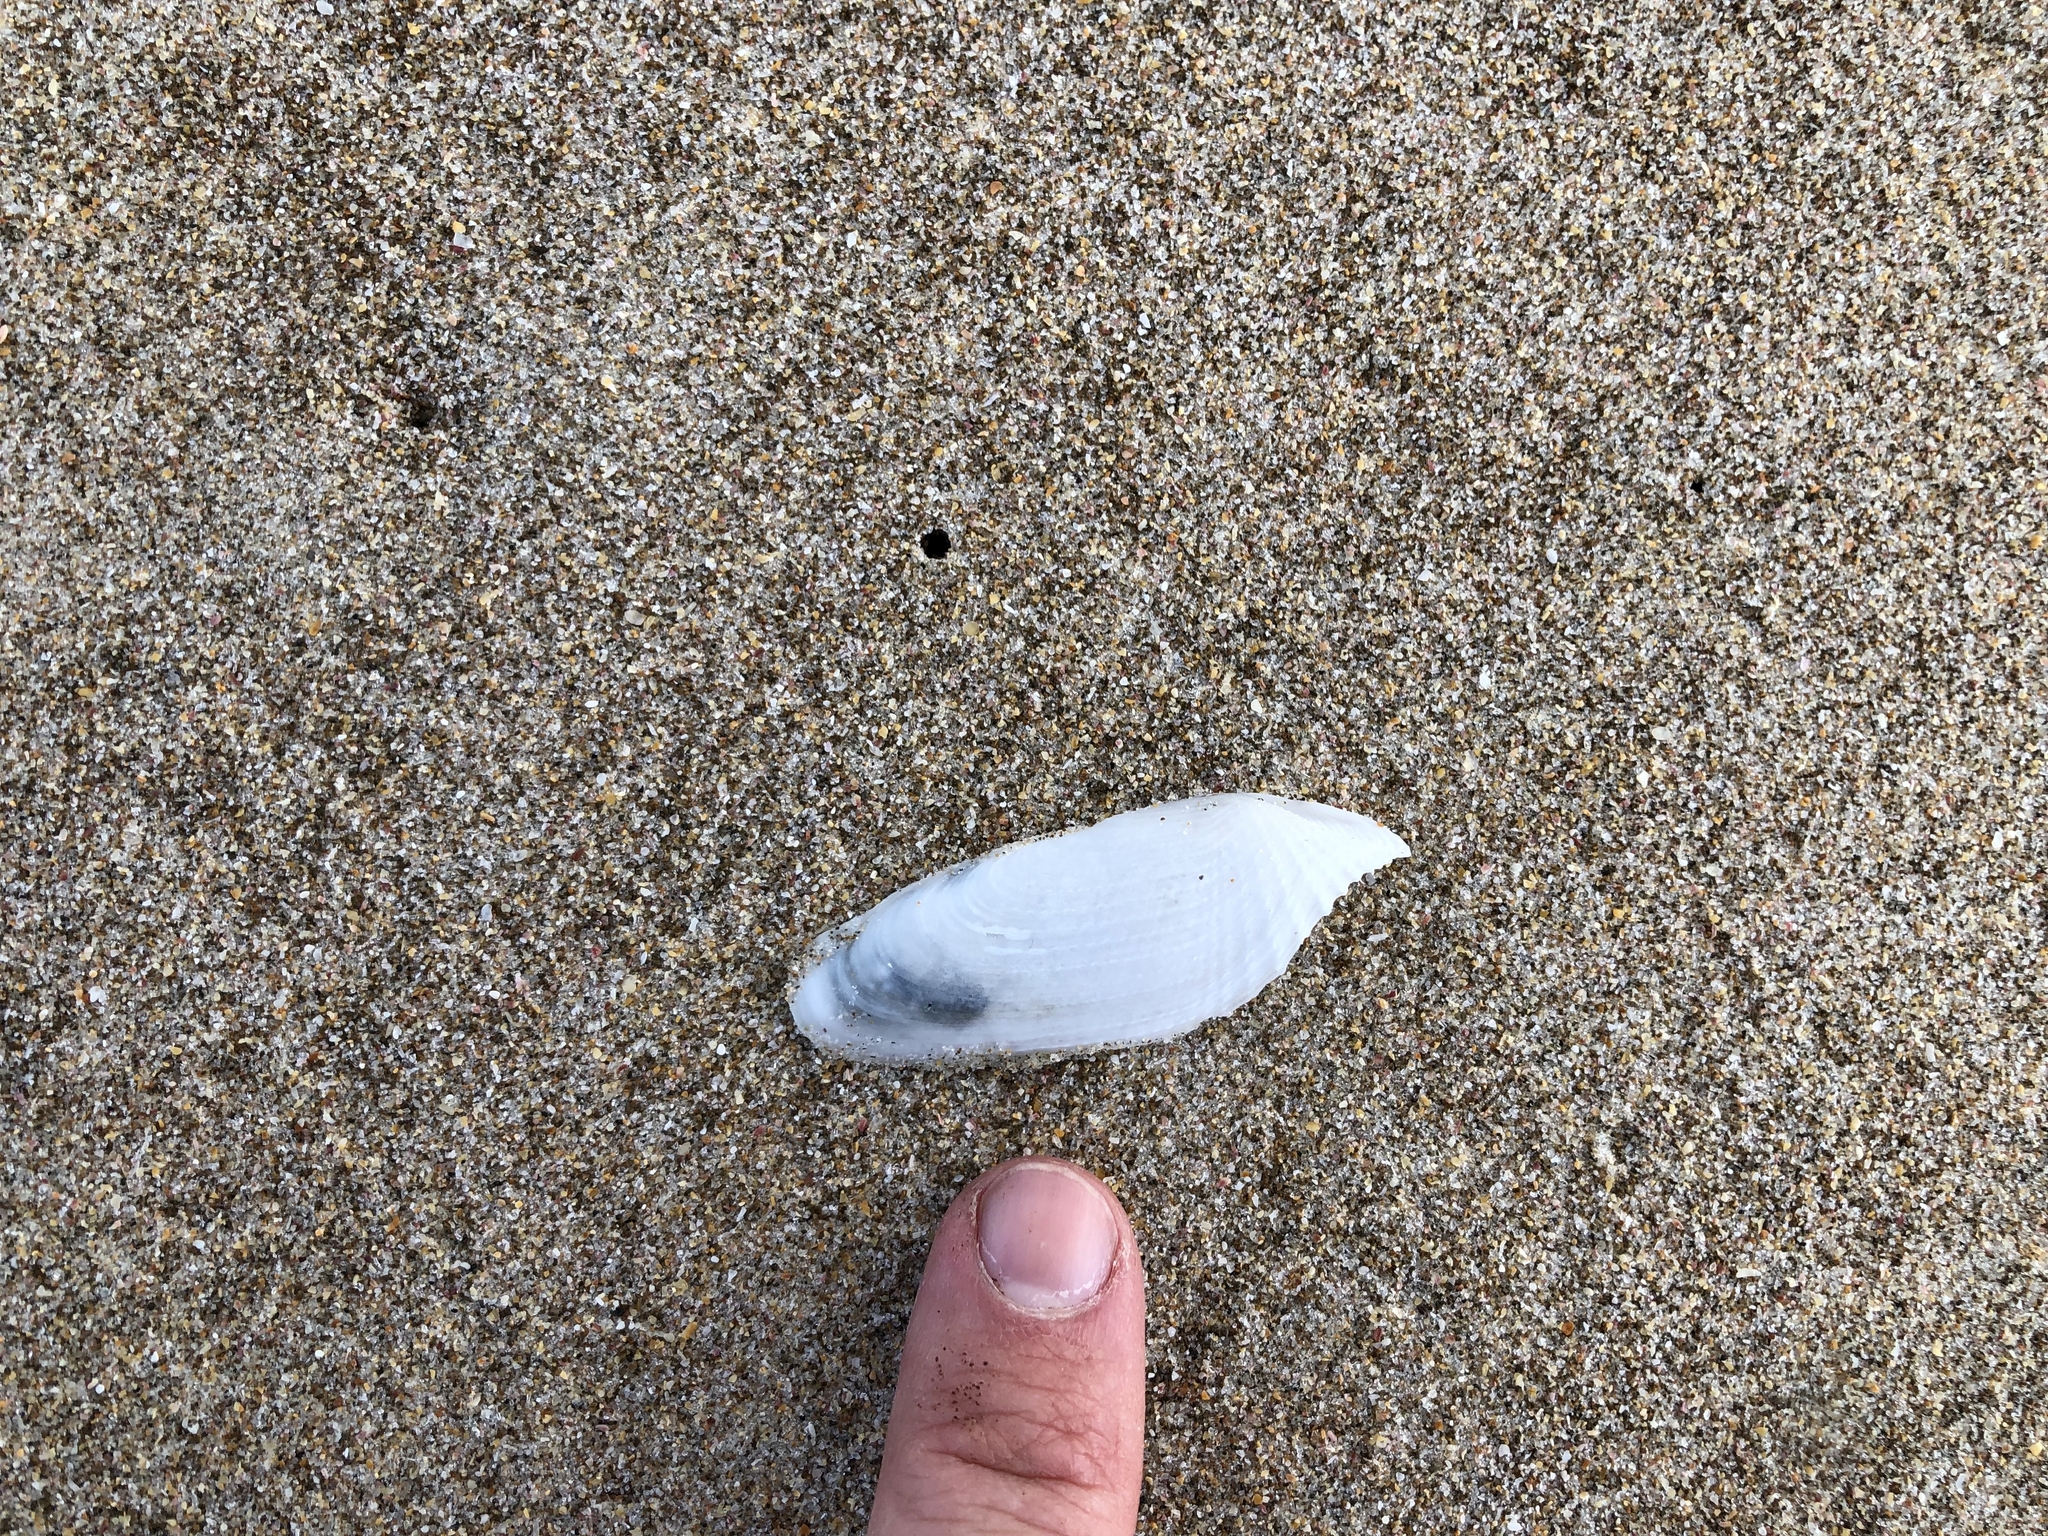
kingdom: Animalia
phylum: Mollusca
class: Bivalvia
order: Myida
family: Pholadidae
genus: Barnea
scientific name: Barnea similis
